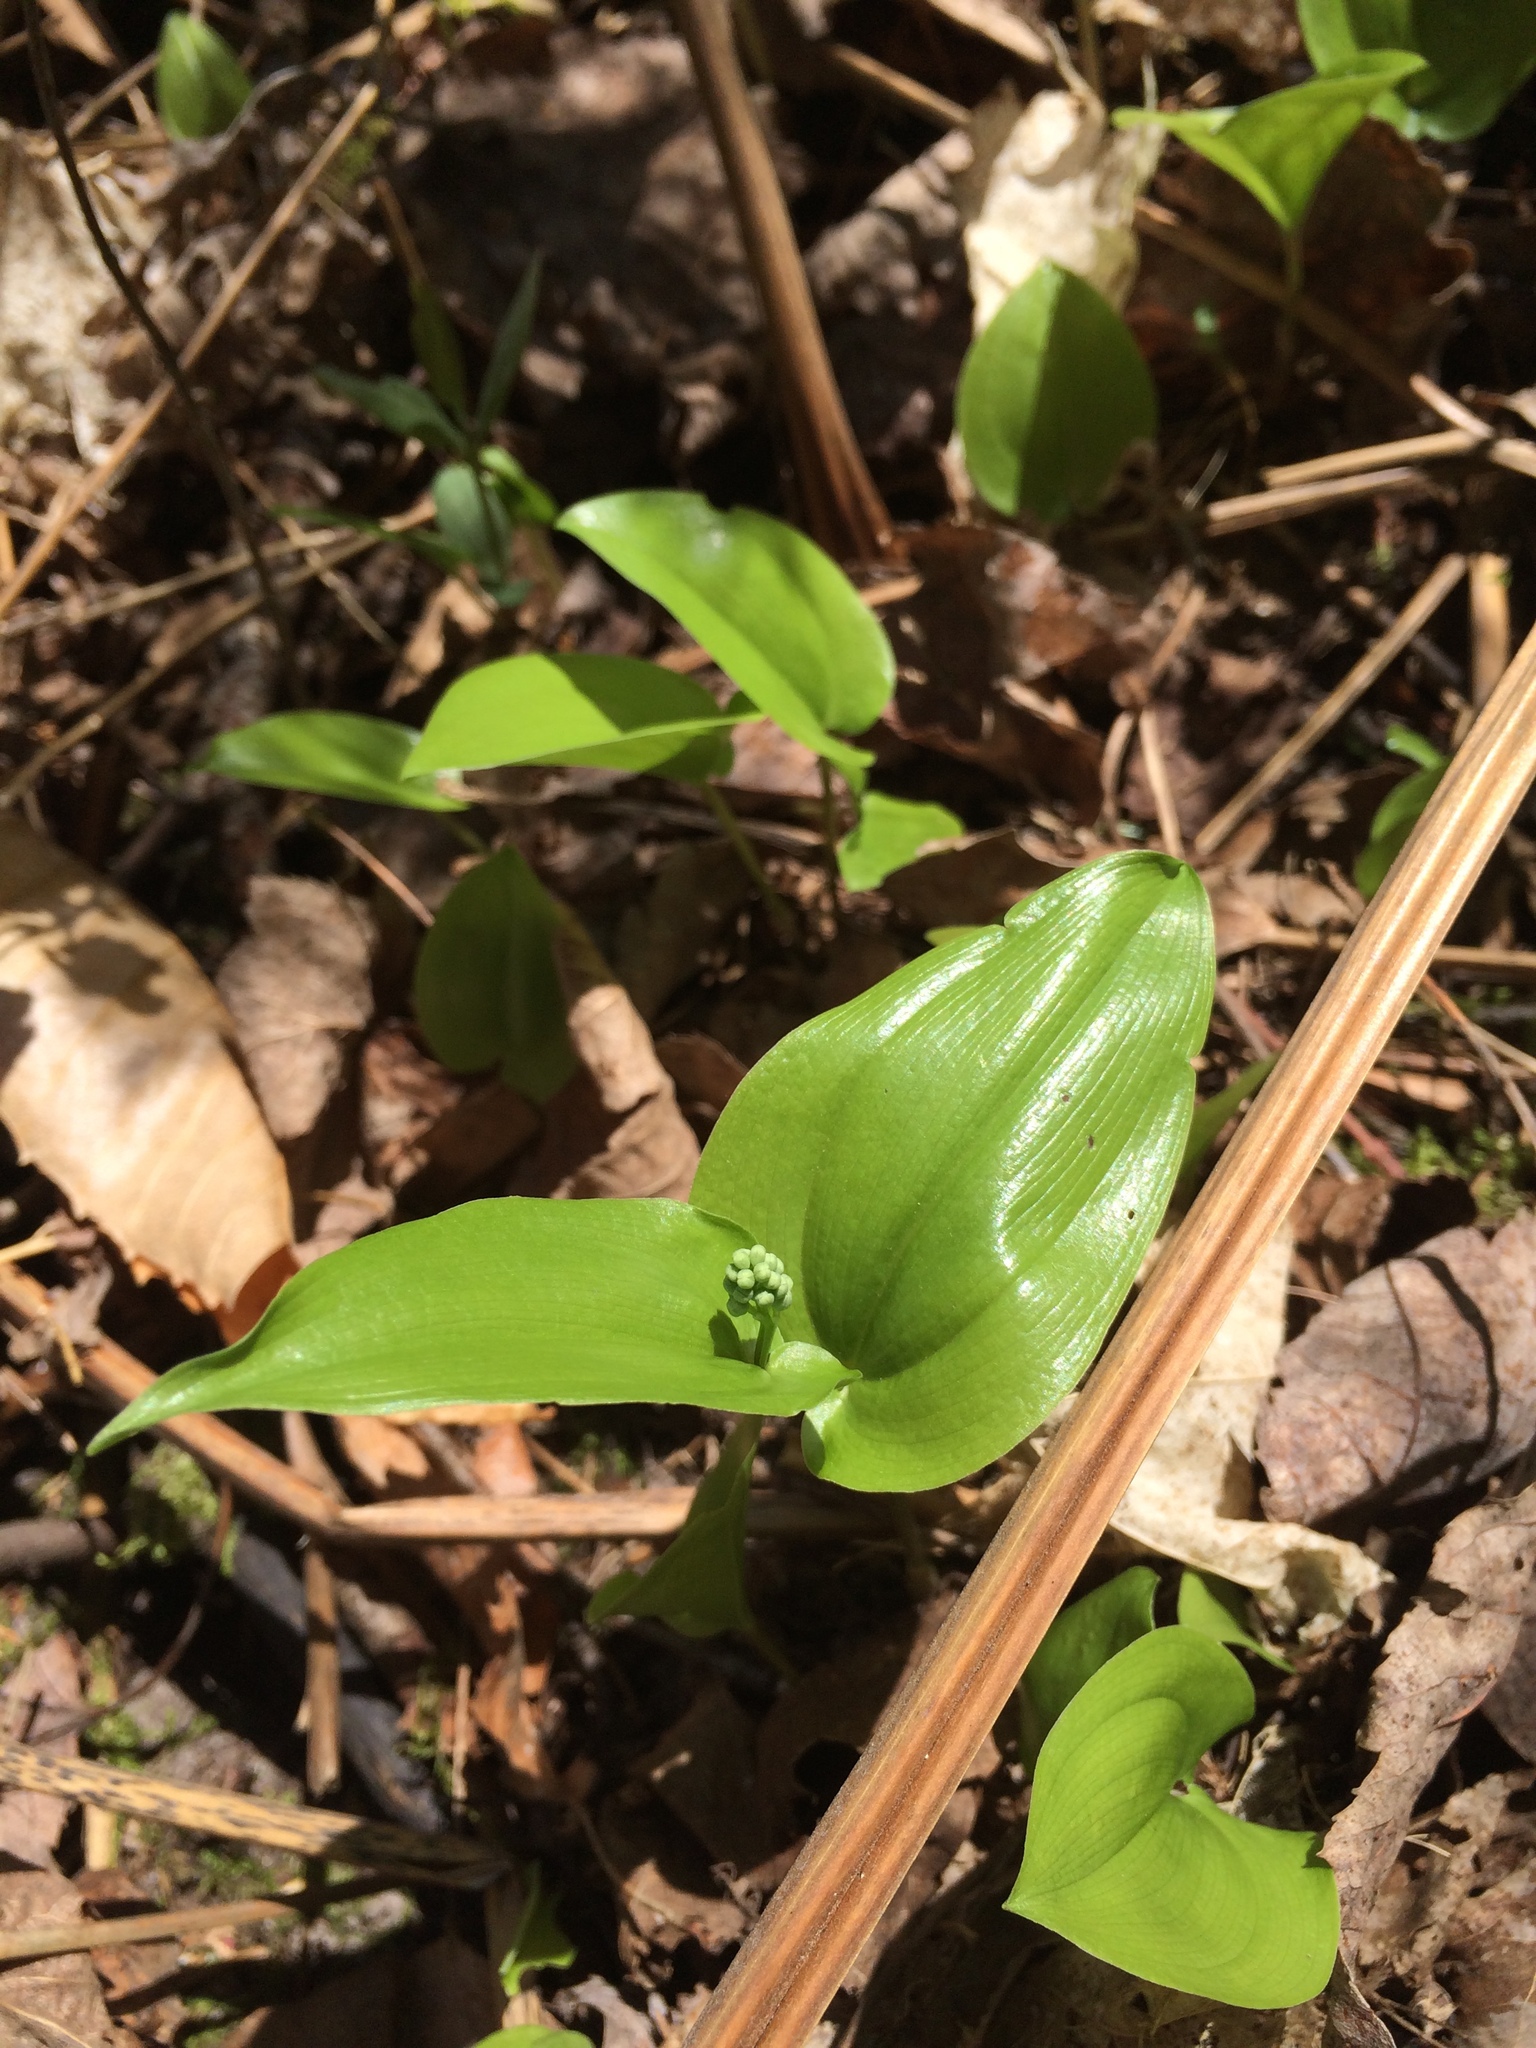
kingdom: Plantae
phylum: Tracheophyta
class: Liliopsida
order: Asparagales
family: Asparagaceae
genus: Maianthemum
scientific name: Maianthemum canadense
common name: False lily-of-the-valley
